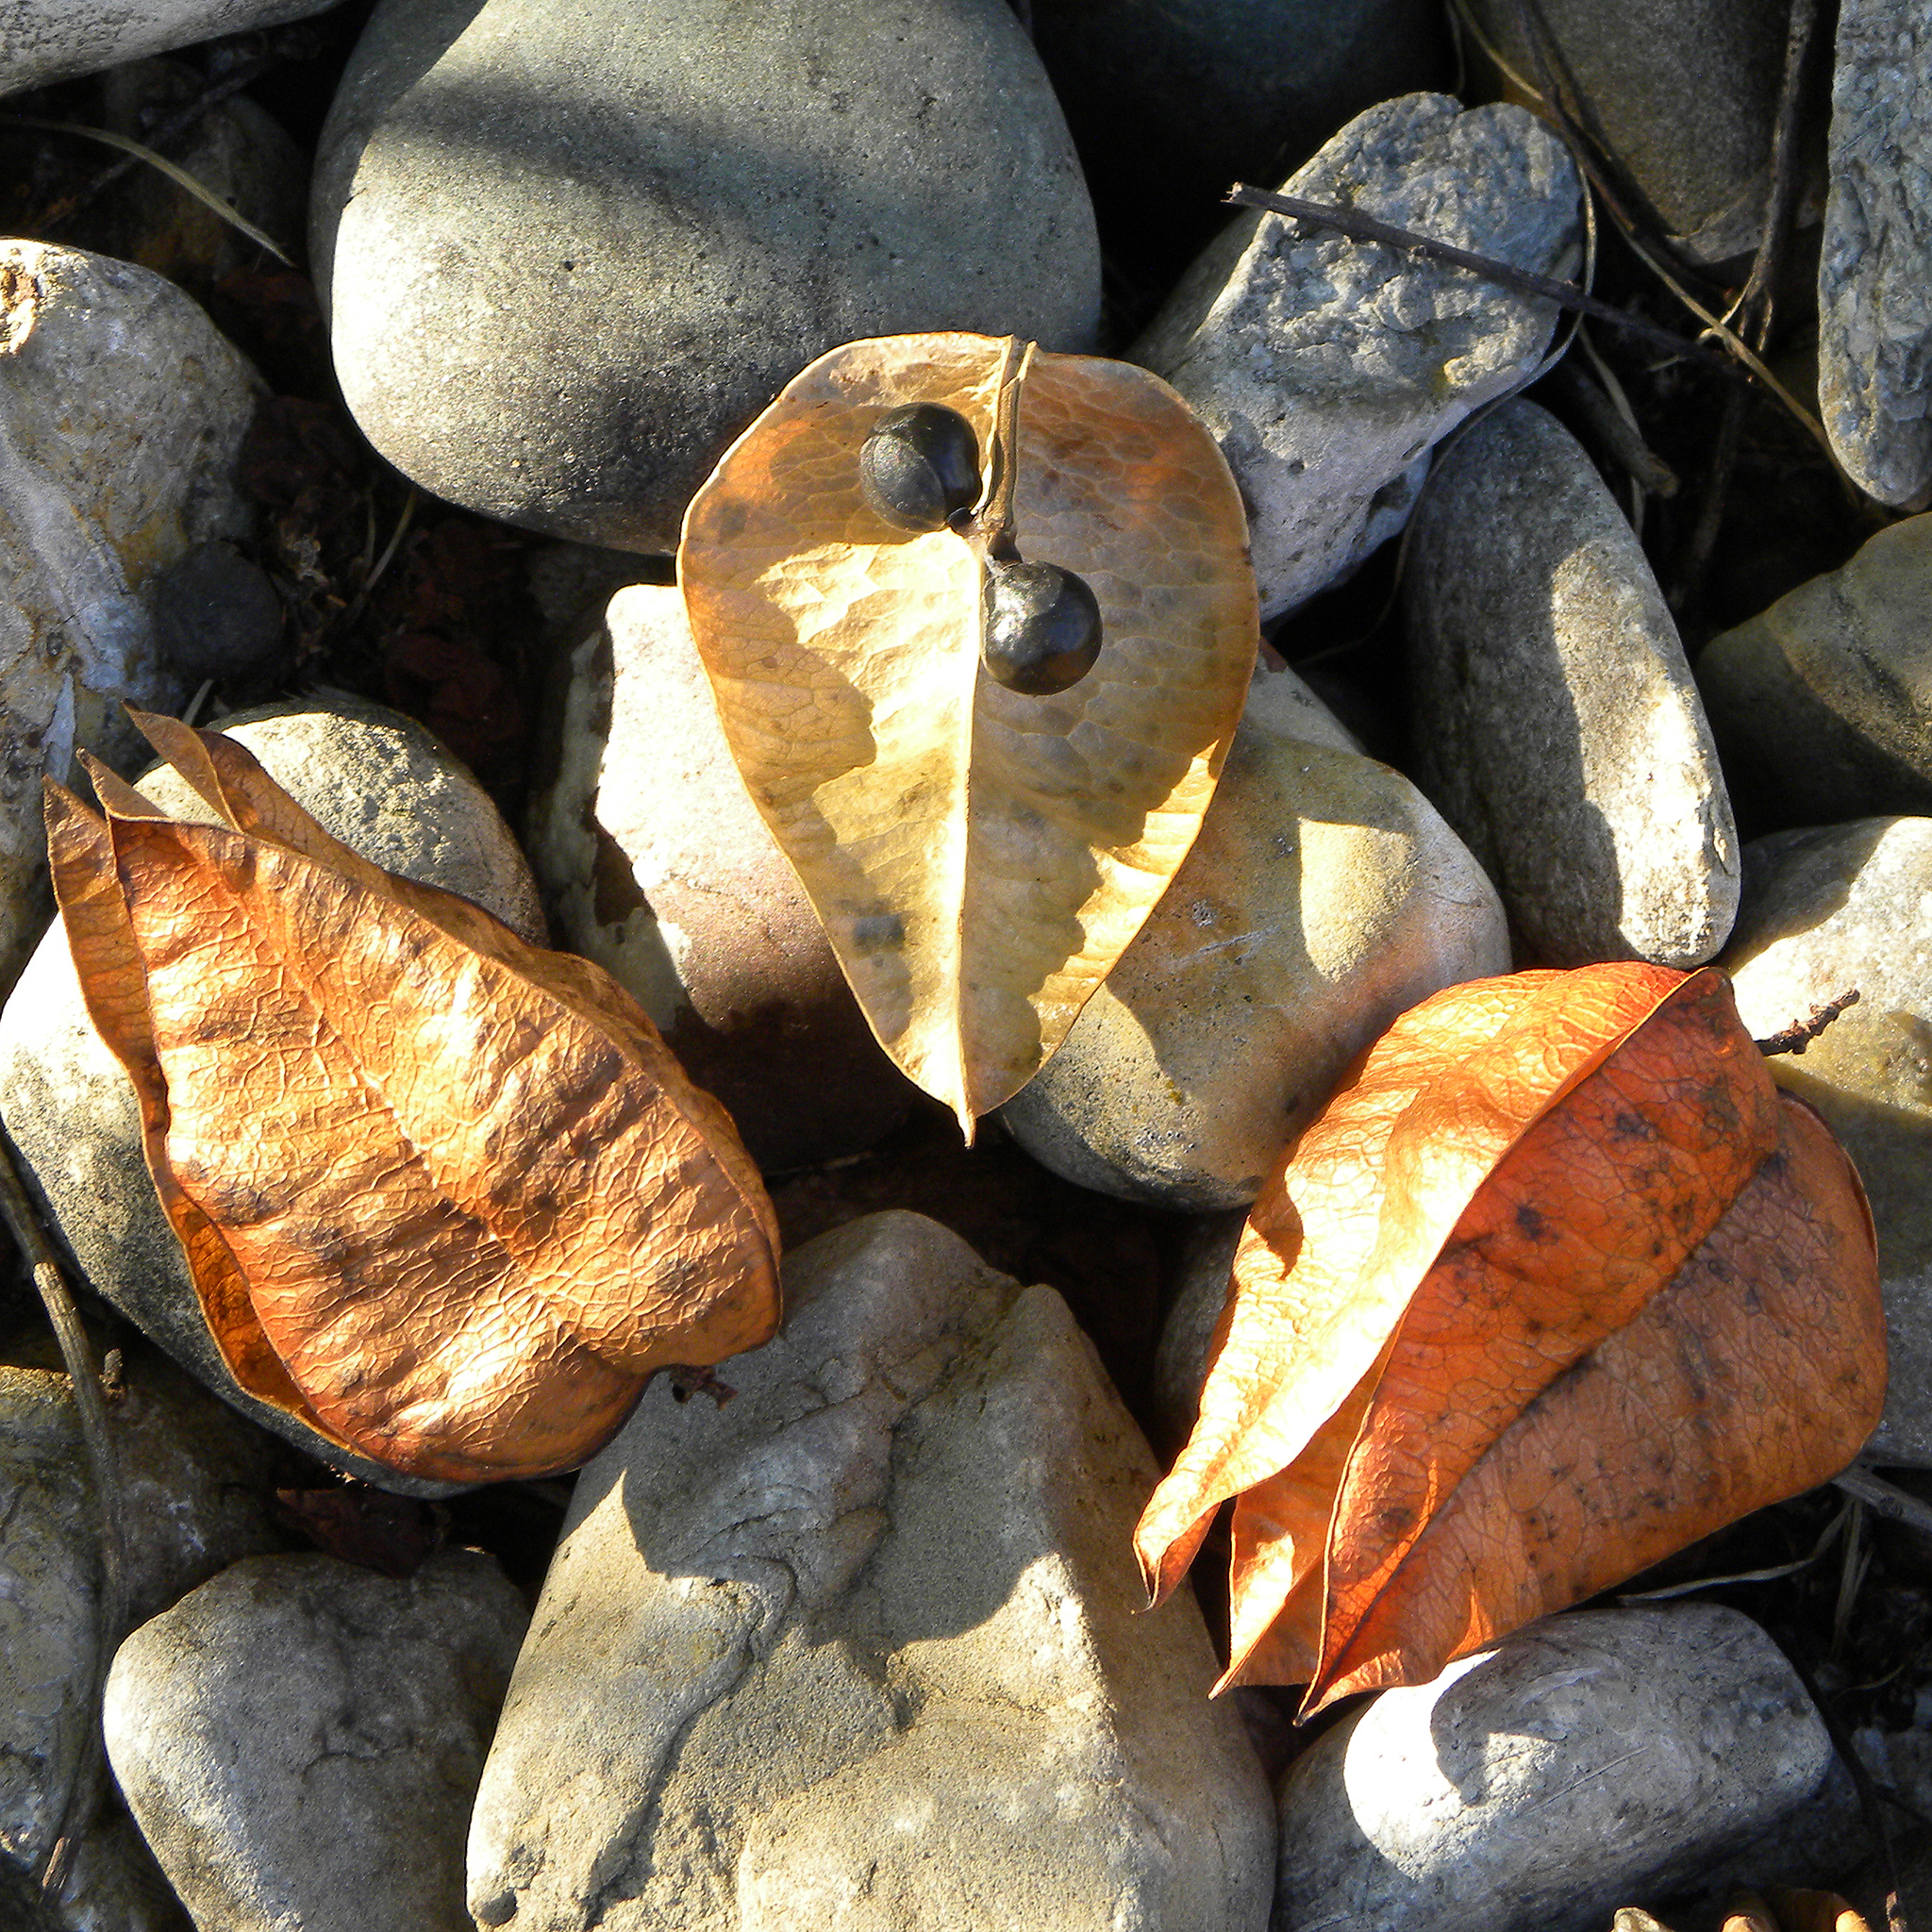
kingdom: Plantae
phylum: Tracheophyta
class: Magnoliopsida
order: Sapindales
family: Sapindaceae
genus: Koelreuteria
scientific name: Koelreuteria paniculata
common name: Pride-of-india
